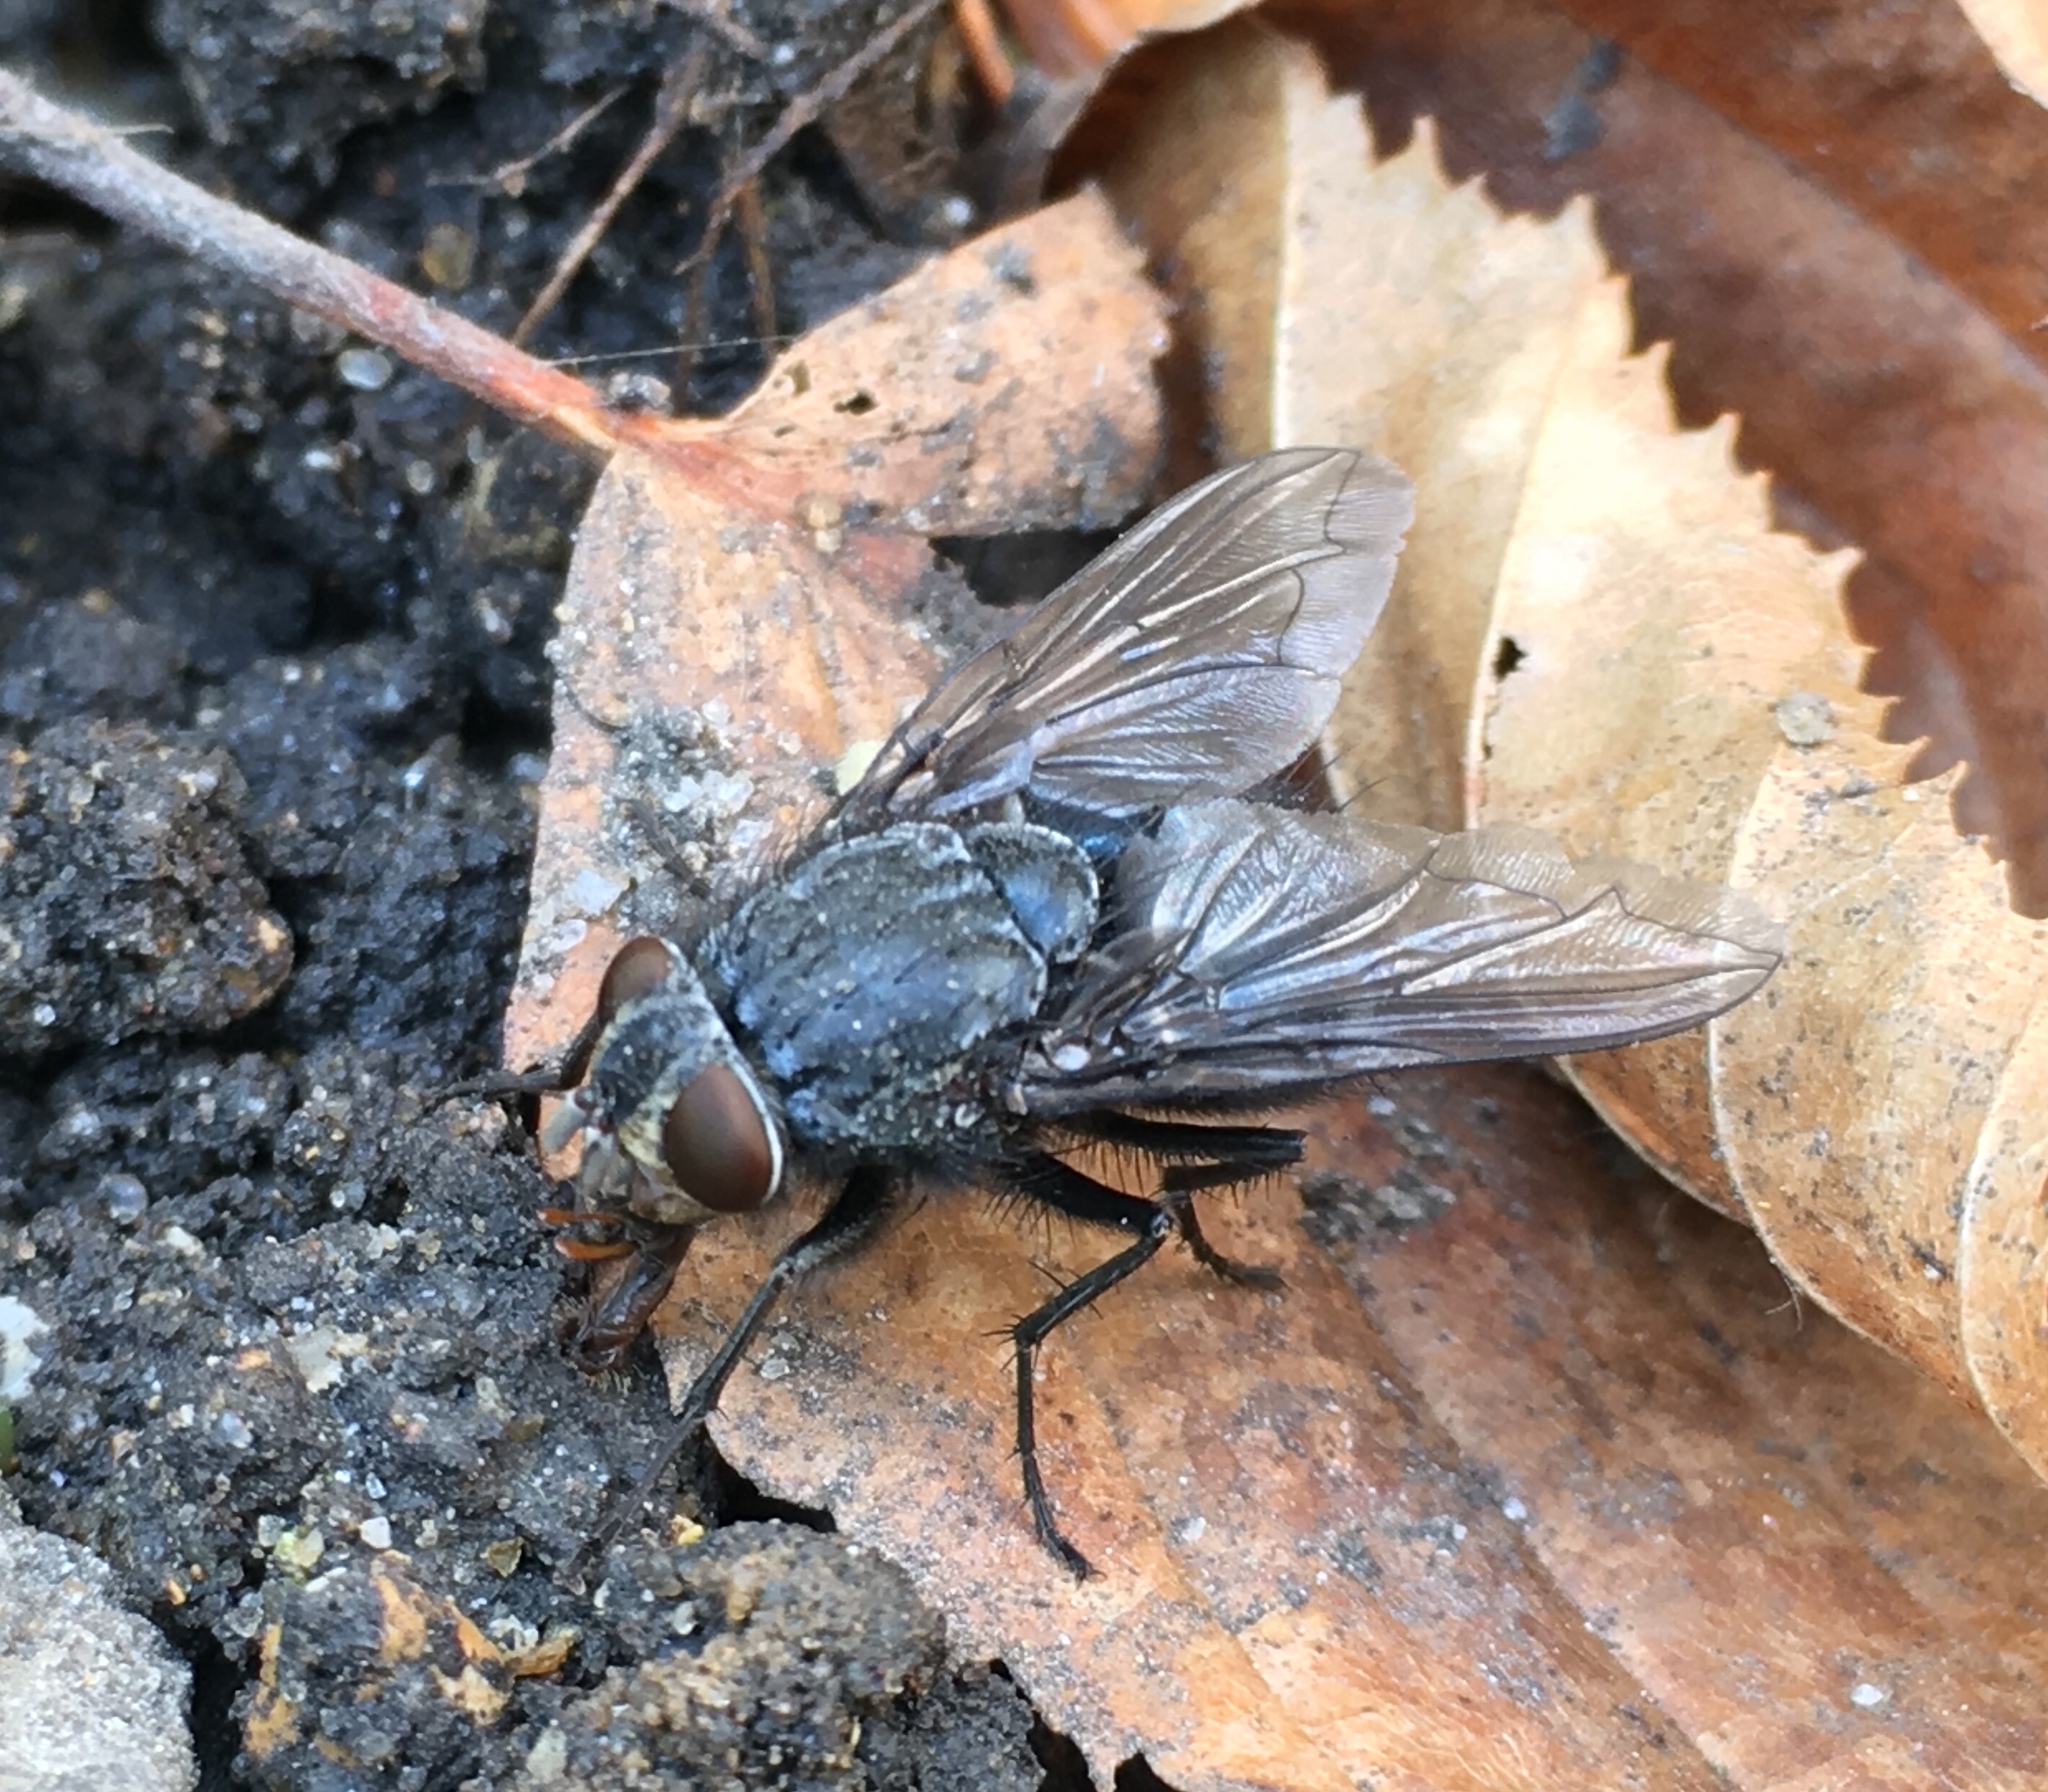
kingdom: Animalia
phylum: Arthropoda
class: Insecta
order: Diptera
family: Calliphoridae
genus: Calliphora
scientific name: Calliphora vicina
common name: Common blow flie
